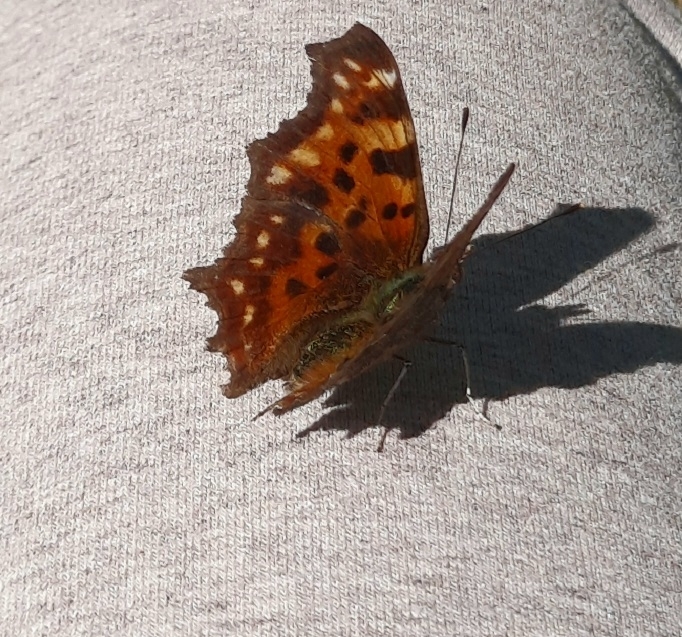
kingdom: Animalia
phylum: Arthropoda
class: Insecta
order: Lepidoptera
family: Nymphalidae
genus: Polygonia
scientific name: Polygonia c-album
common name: Comma
